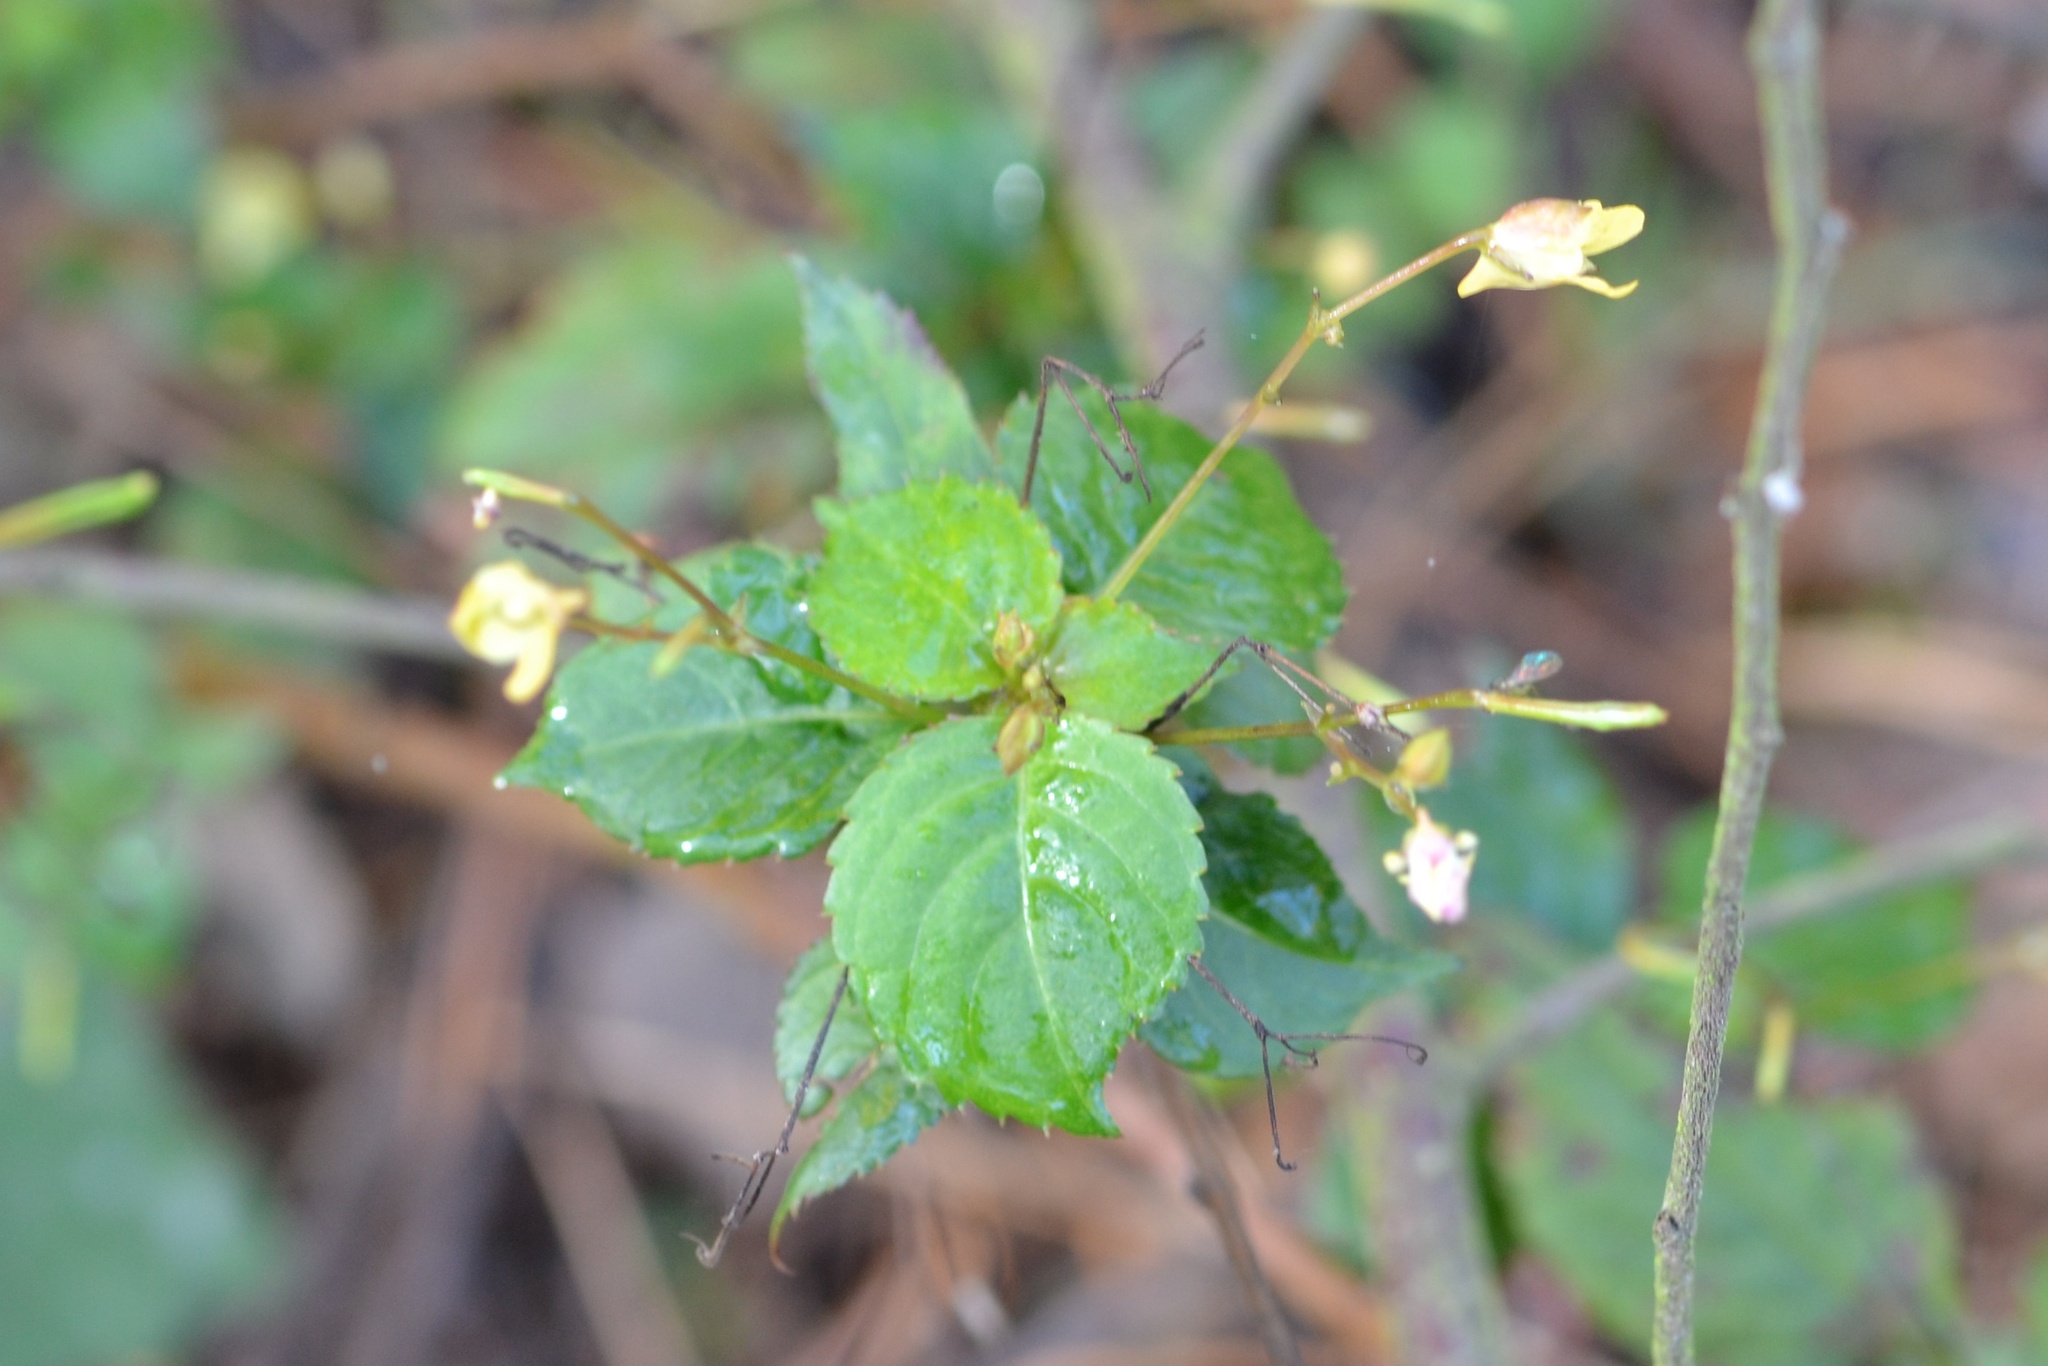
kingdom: Plantae
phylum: Tracheophyta
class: Magnoliopsida
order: Ericales
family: Balsaminaceae
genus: Impatiens
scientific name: Impatiens parviflora
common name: Small balsam
